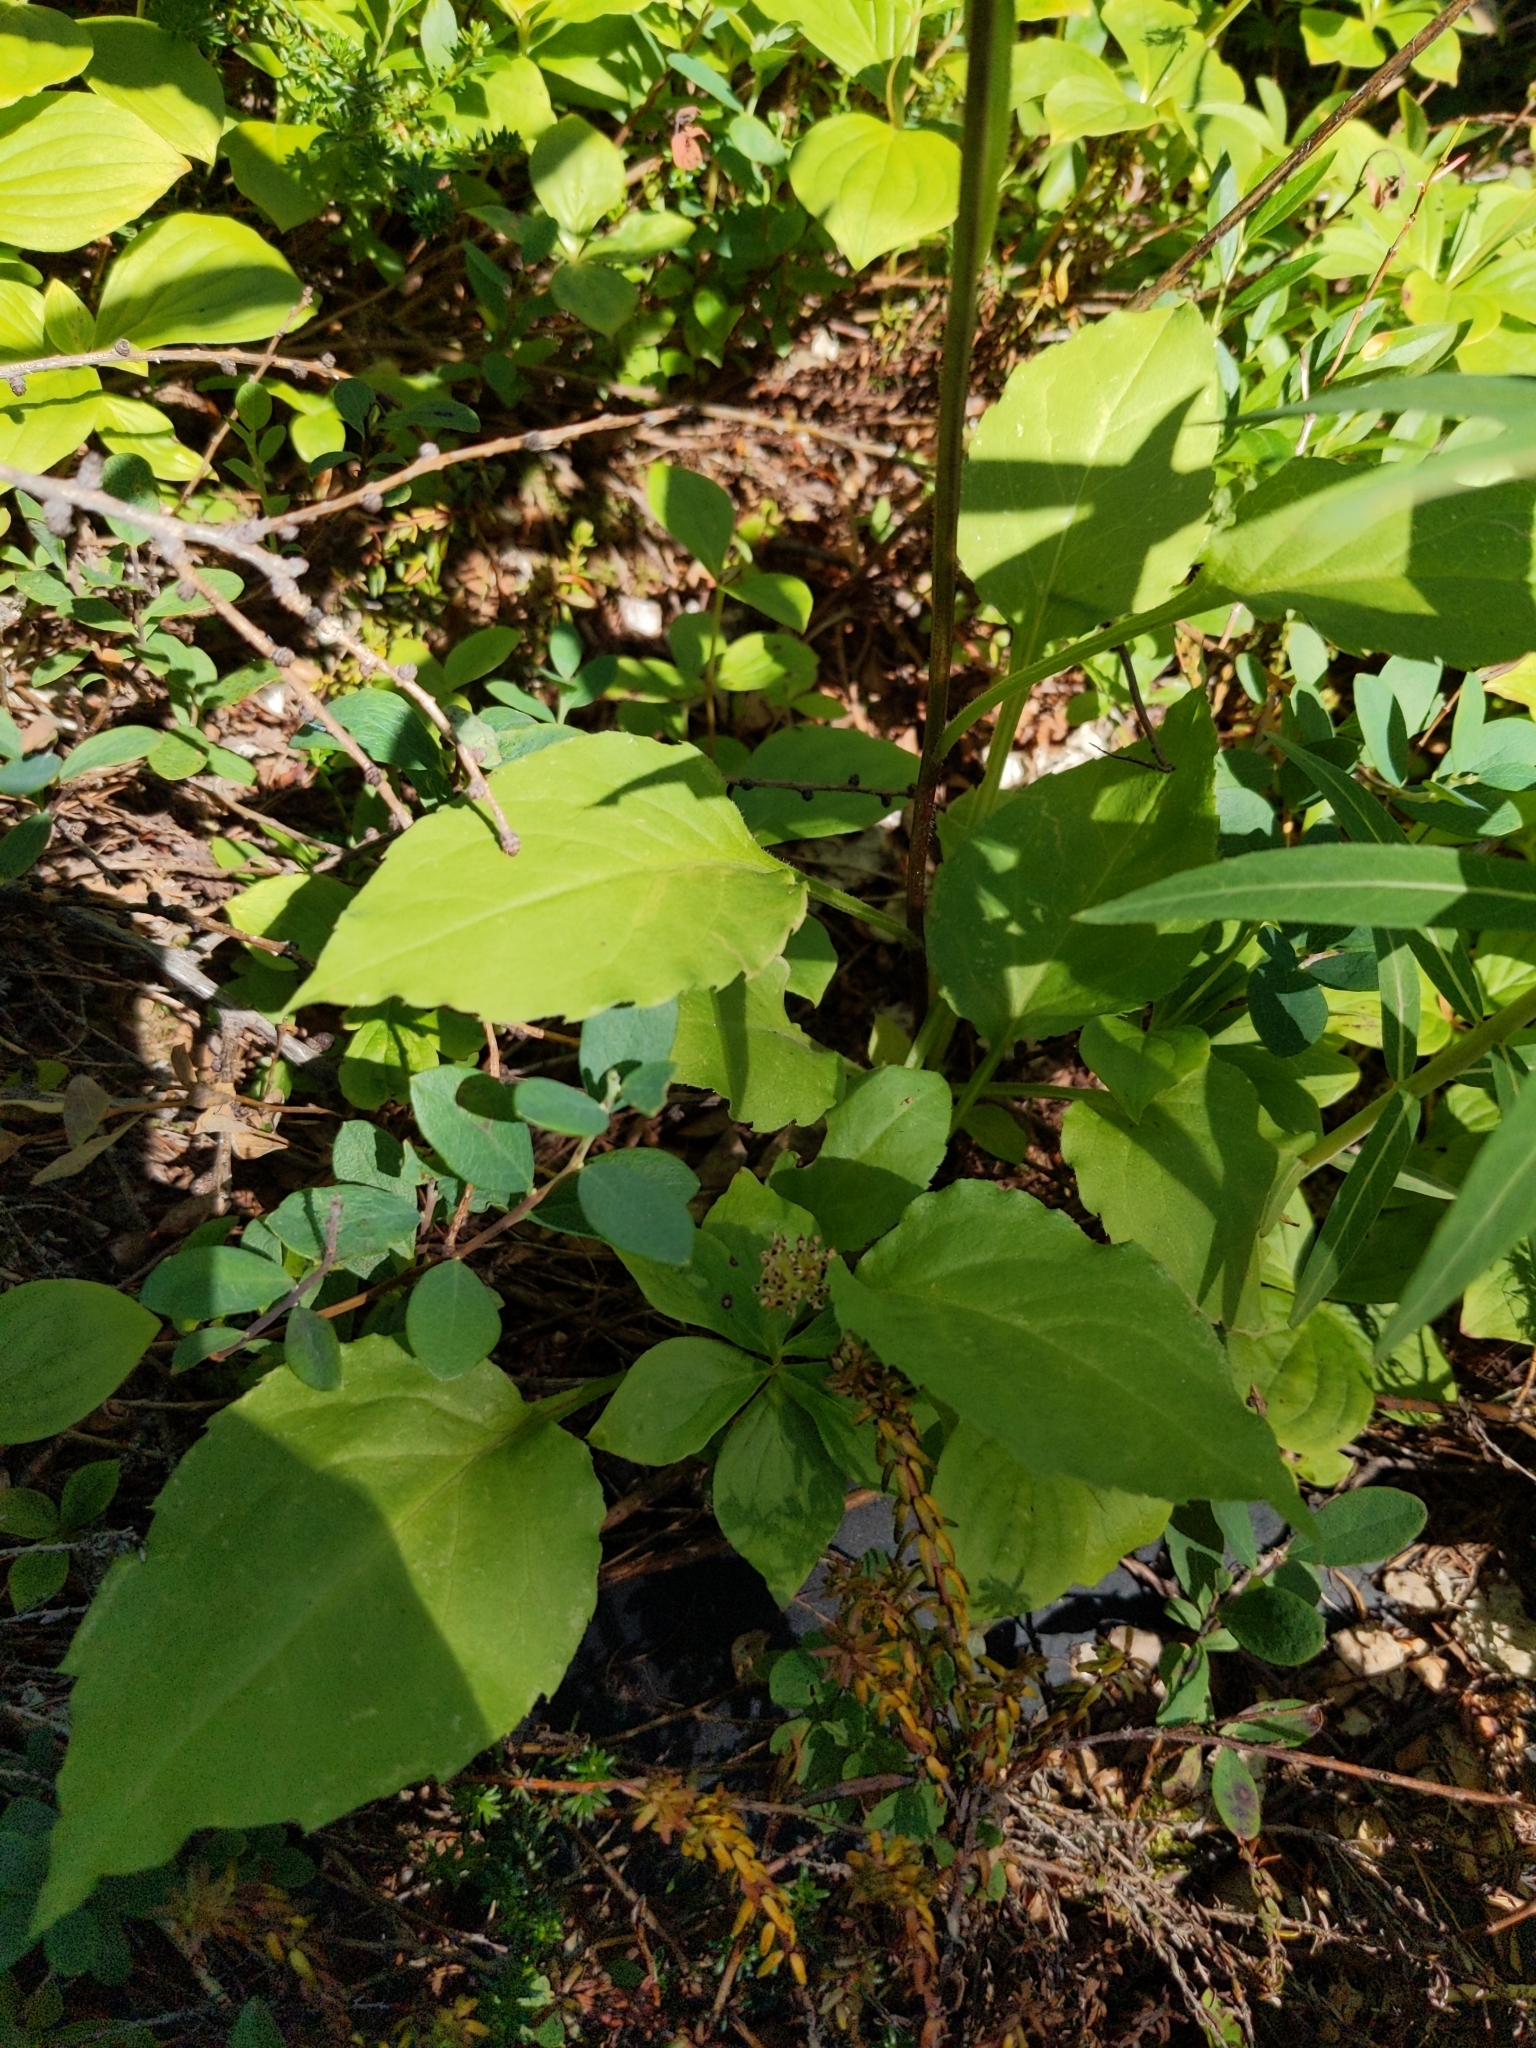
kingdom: Plantae
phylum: Tracheophyta
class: Magnoliopsida
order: Asterales
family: Asteraceae
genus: Solidago
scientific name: Solidago macrophylla
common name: Large-leaved goldenrod
